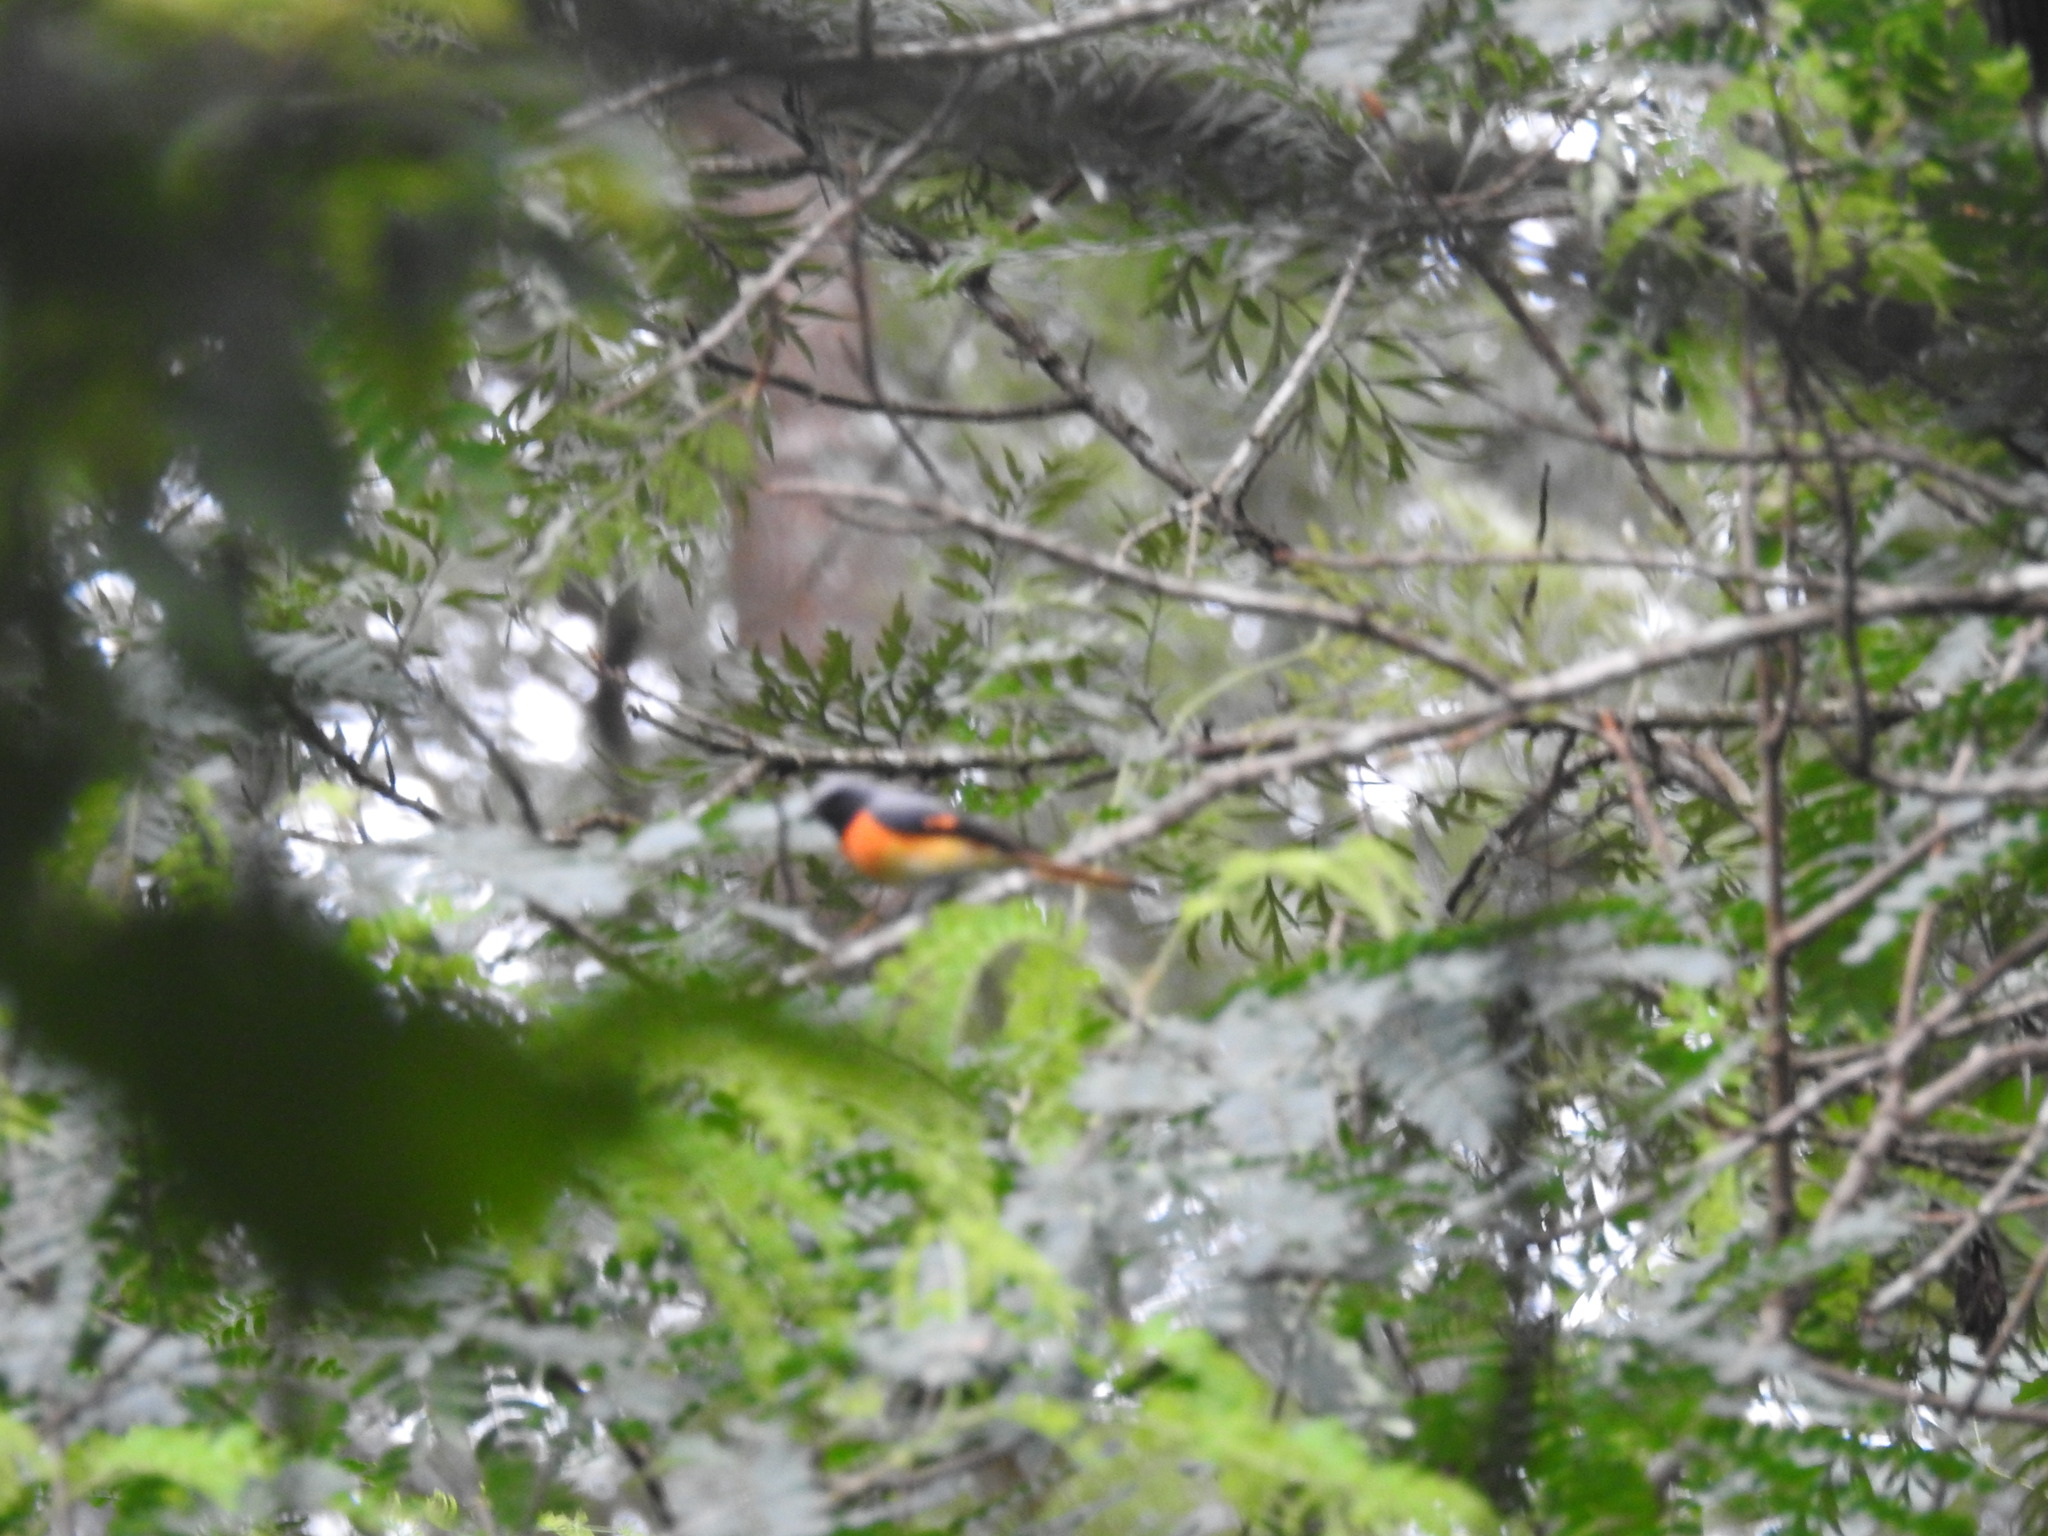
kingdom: Animalia
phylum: Chordata
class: Aves
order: Passeriformes
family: Campephagidae
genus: Pericrocotus
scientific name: Pericrocotus cinnamomeus
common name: Small minivet
